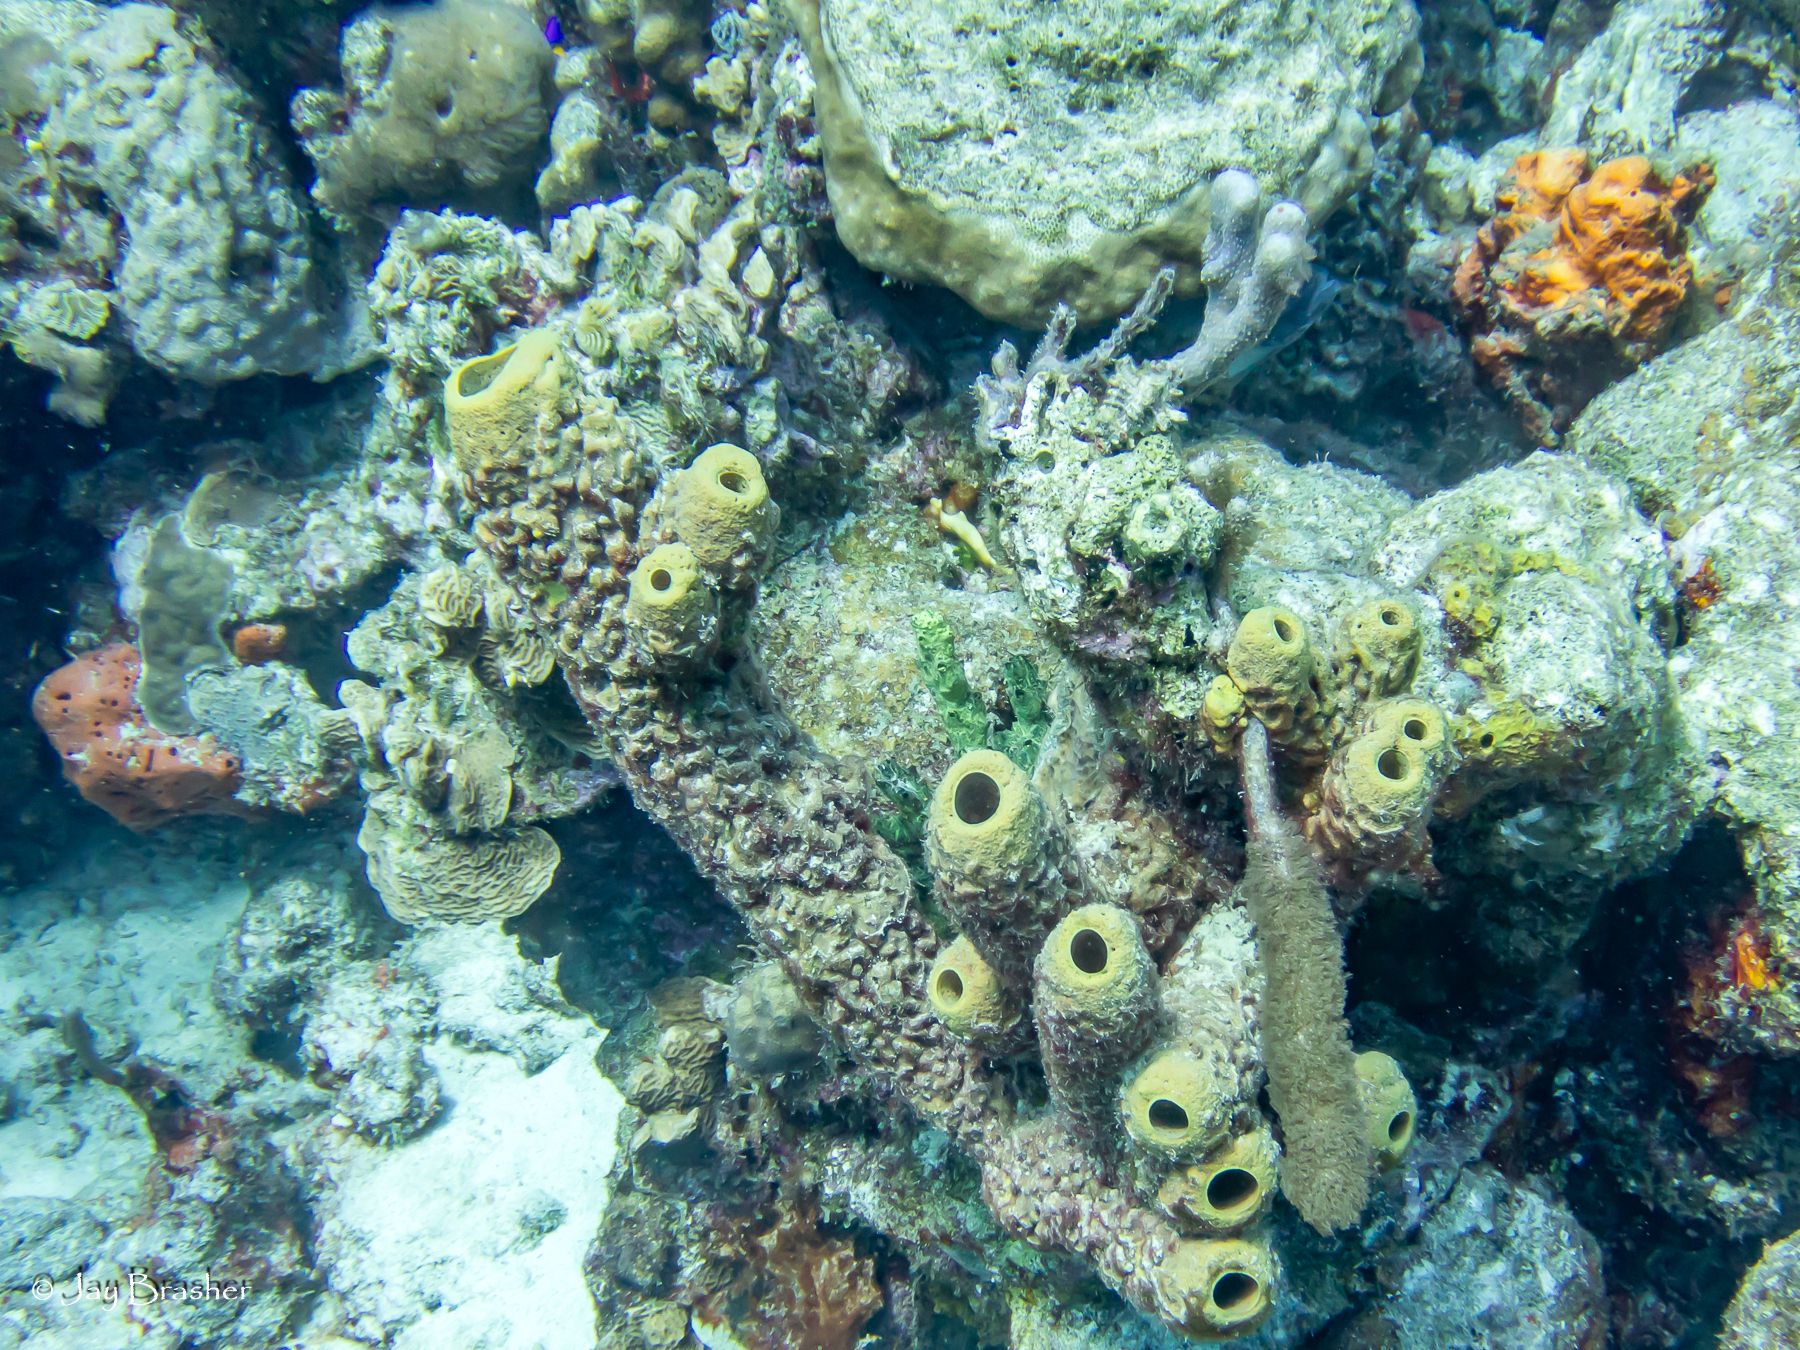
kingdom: Animalia
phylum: Porifera
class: Demospongiae
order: Verongiida
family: Aplysinidae
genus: Aplysina
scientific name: Aplysina archeri
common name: Stove-pipe sponge
